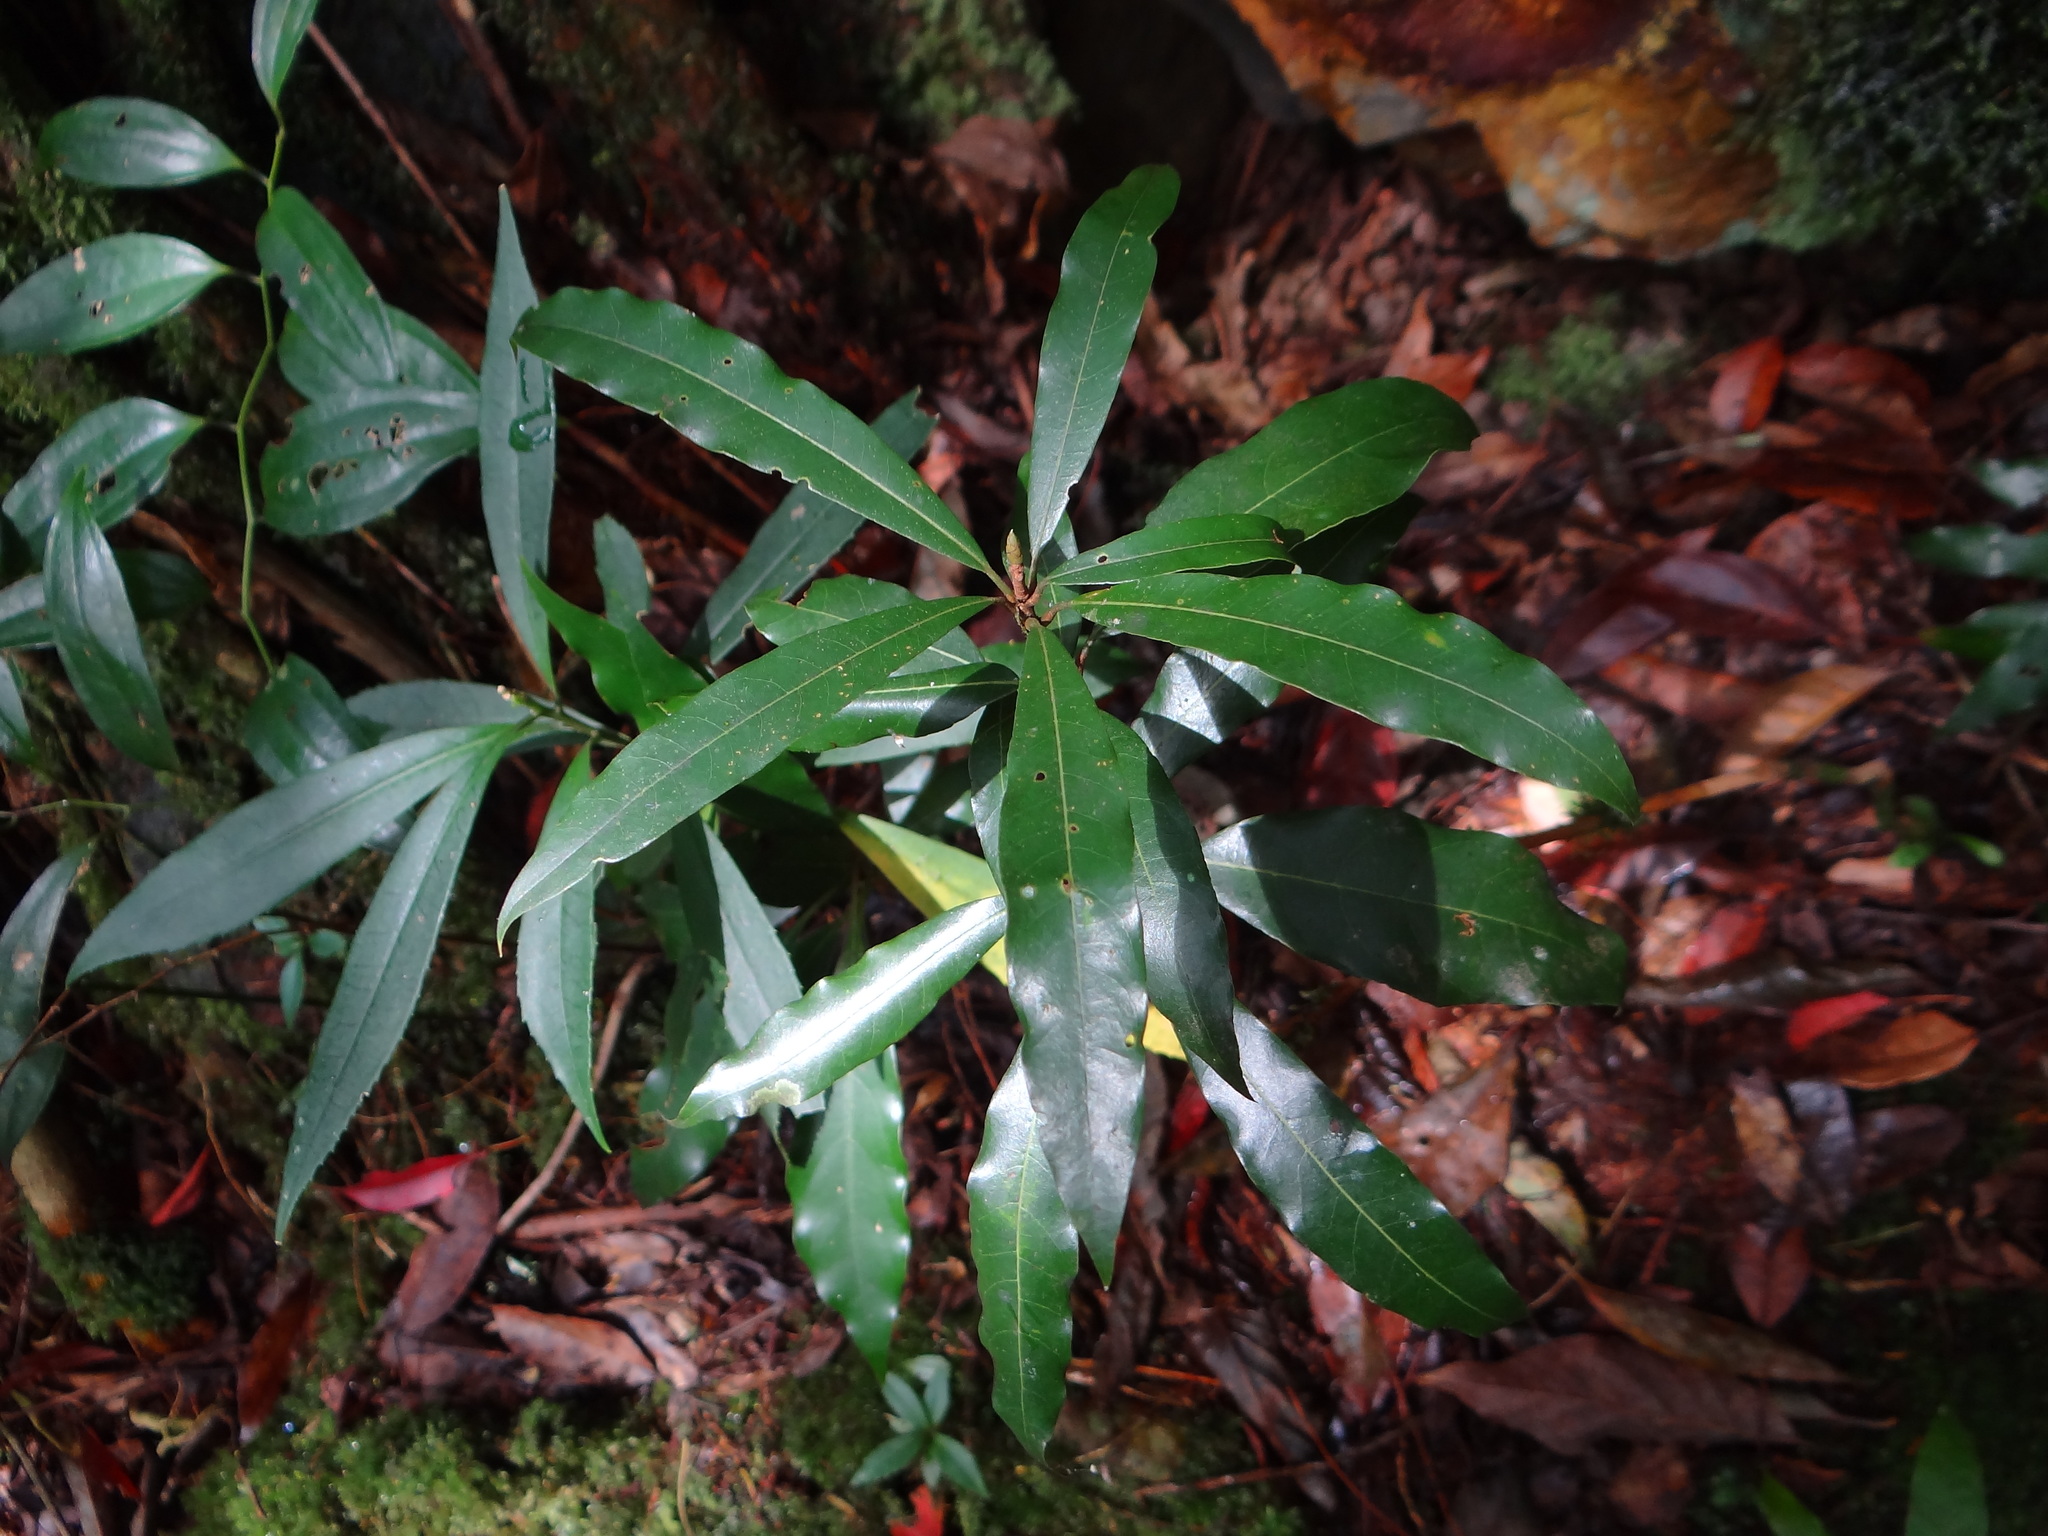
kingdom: Plantae
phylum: Tracheophyta
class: Magnoliopsida
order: Laurales
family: Lauraceae
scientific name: Lauraceae
